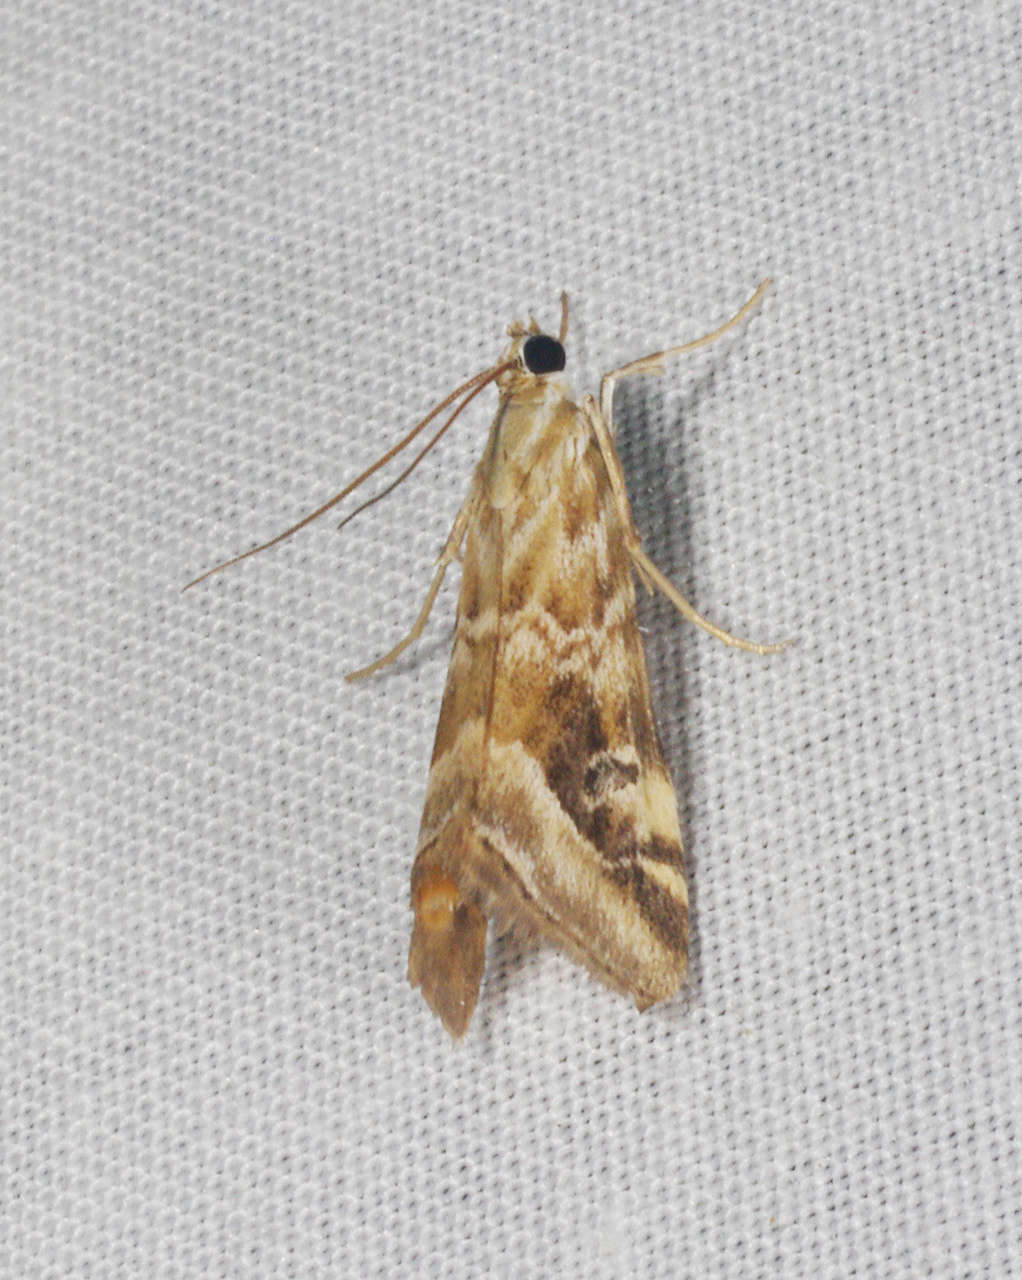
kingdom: Animalia
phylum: Arthropoda
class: Insecta
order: Lepidoptera
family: Crambidae
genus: Hellula
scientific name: Hellula hydralis
